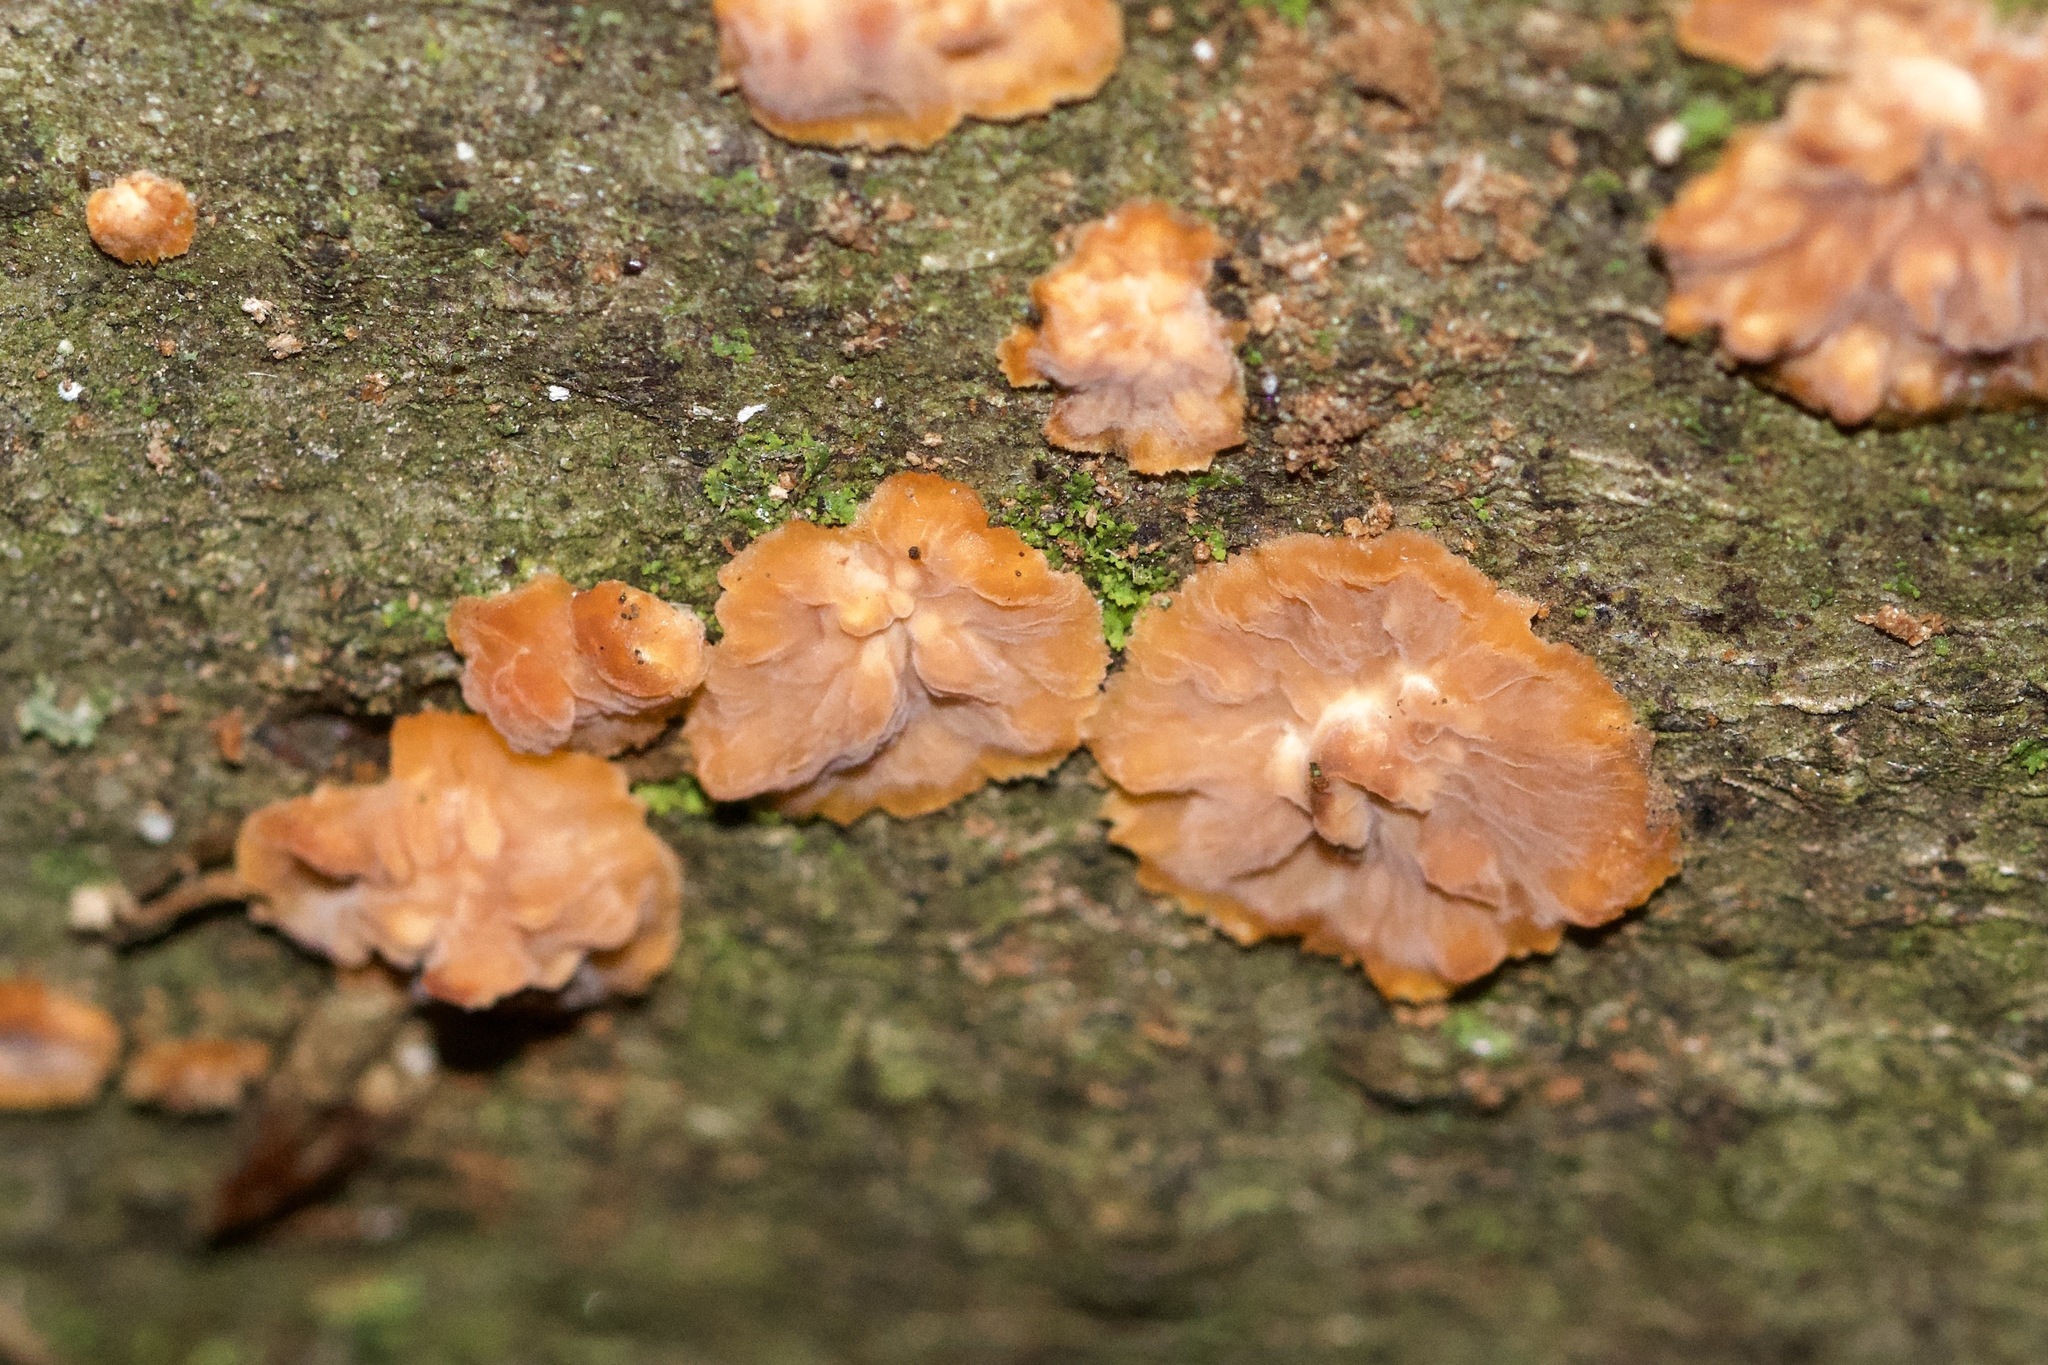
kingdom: Fungi
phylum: Basidiomycota
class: Agaricomycetes
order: Polyporales
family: Meruliaceae
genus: Phlebia
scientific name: Phlebia radiata
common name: Wrinkled crust
